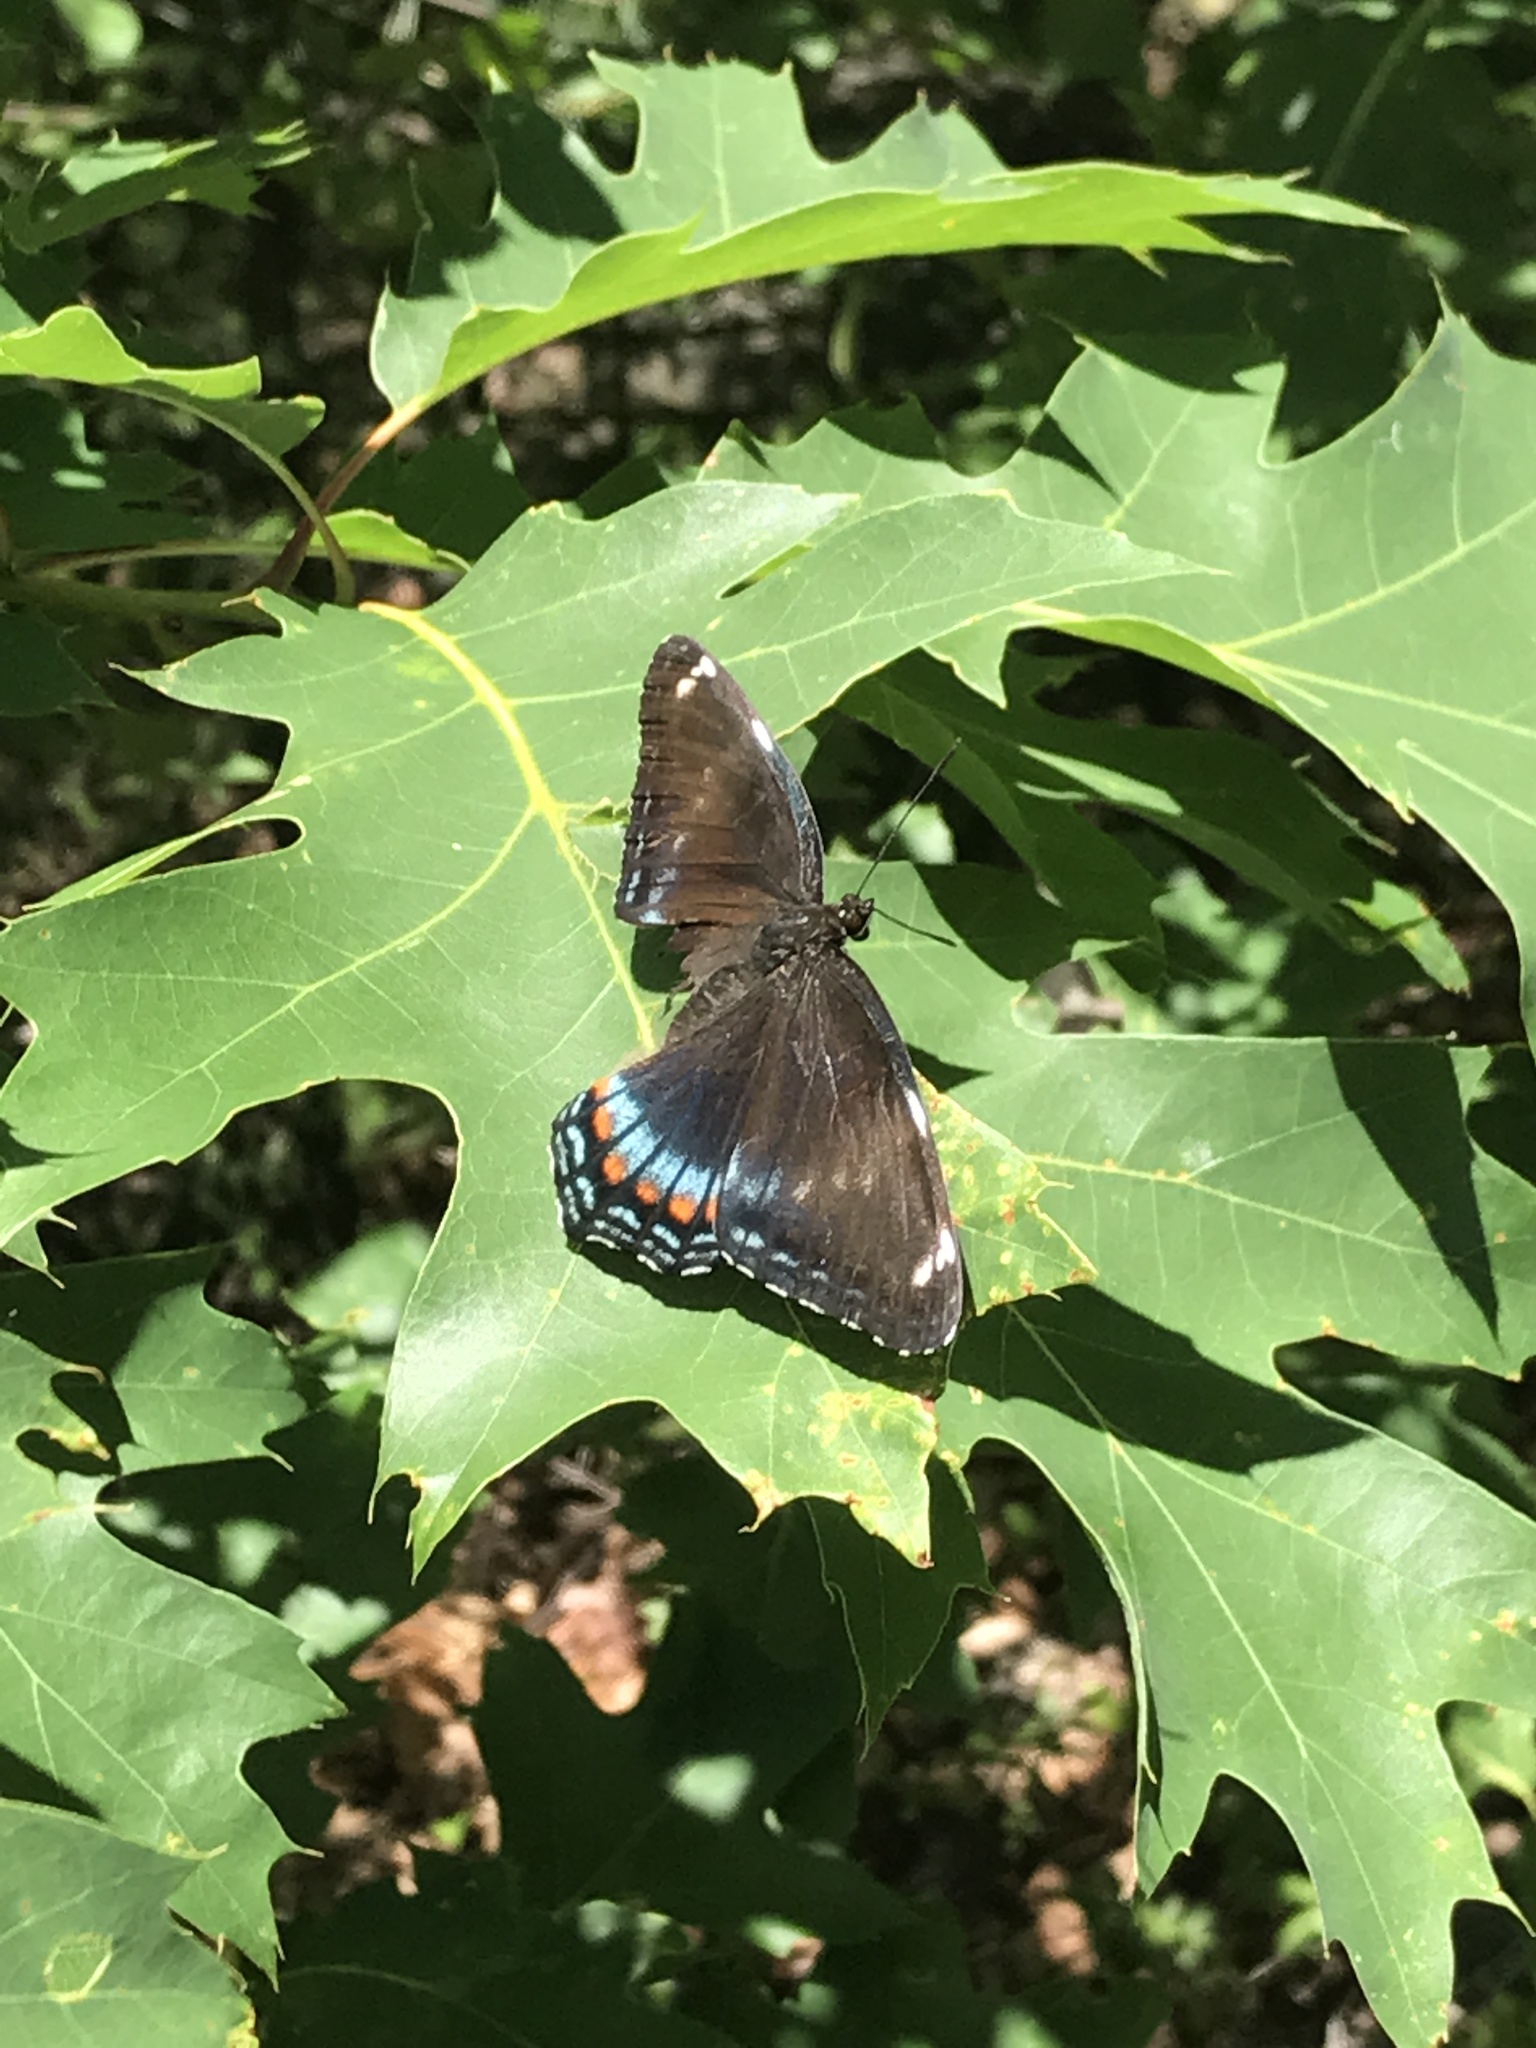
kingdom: Animalia
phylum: Arthropoda
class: Insecta
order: Lepidoptera
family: Nymphalidae
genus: Limenitis
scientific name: Limenitis
